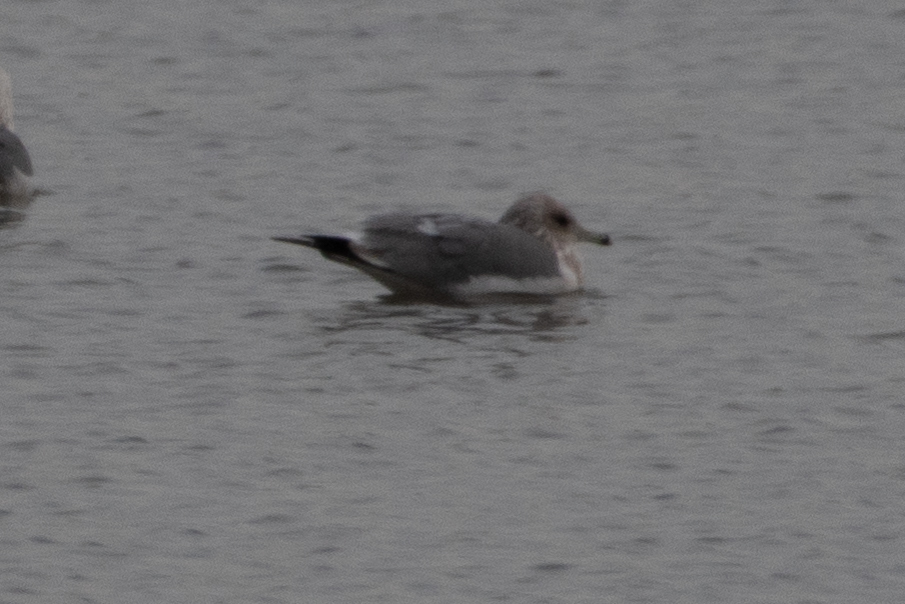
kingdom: Animalia
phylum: Chordata
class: Aves
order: Charadriiformes
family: Laridae
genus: Larus
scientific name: Larus californicus
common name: California gull
